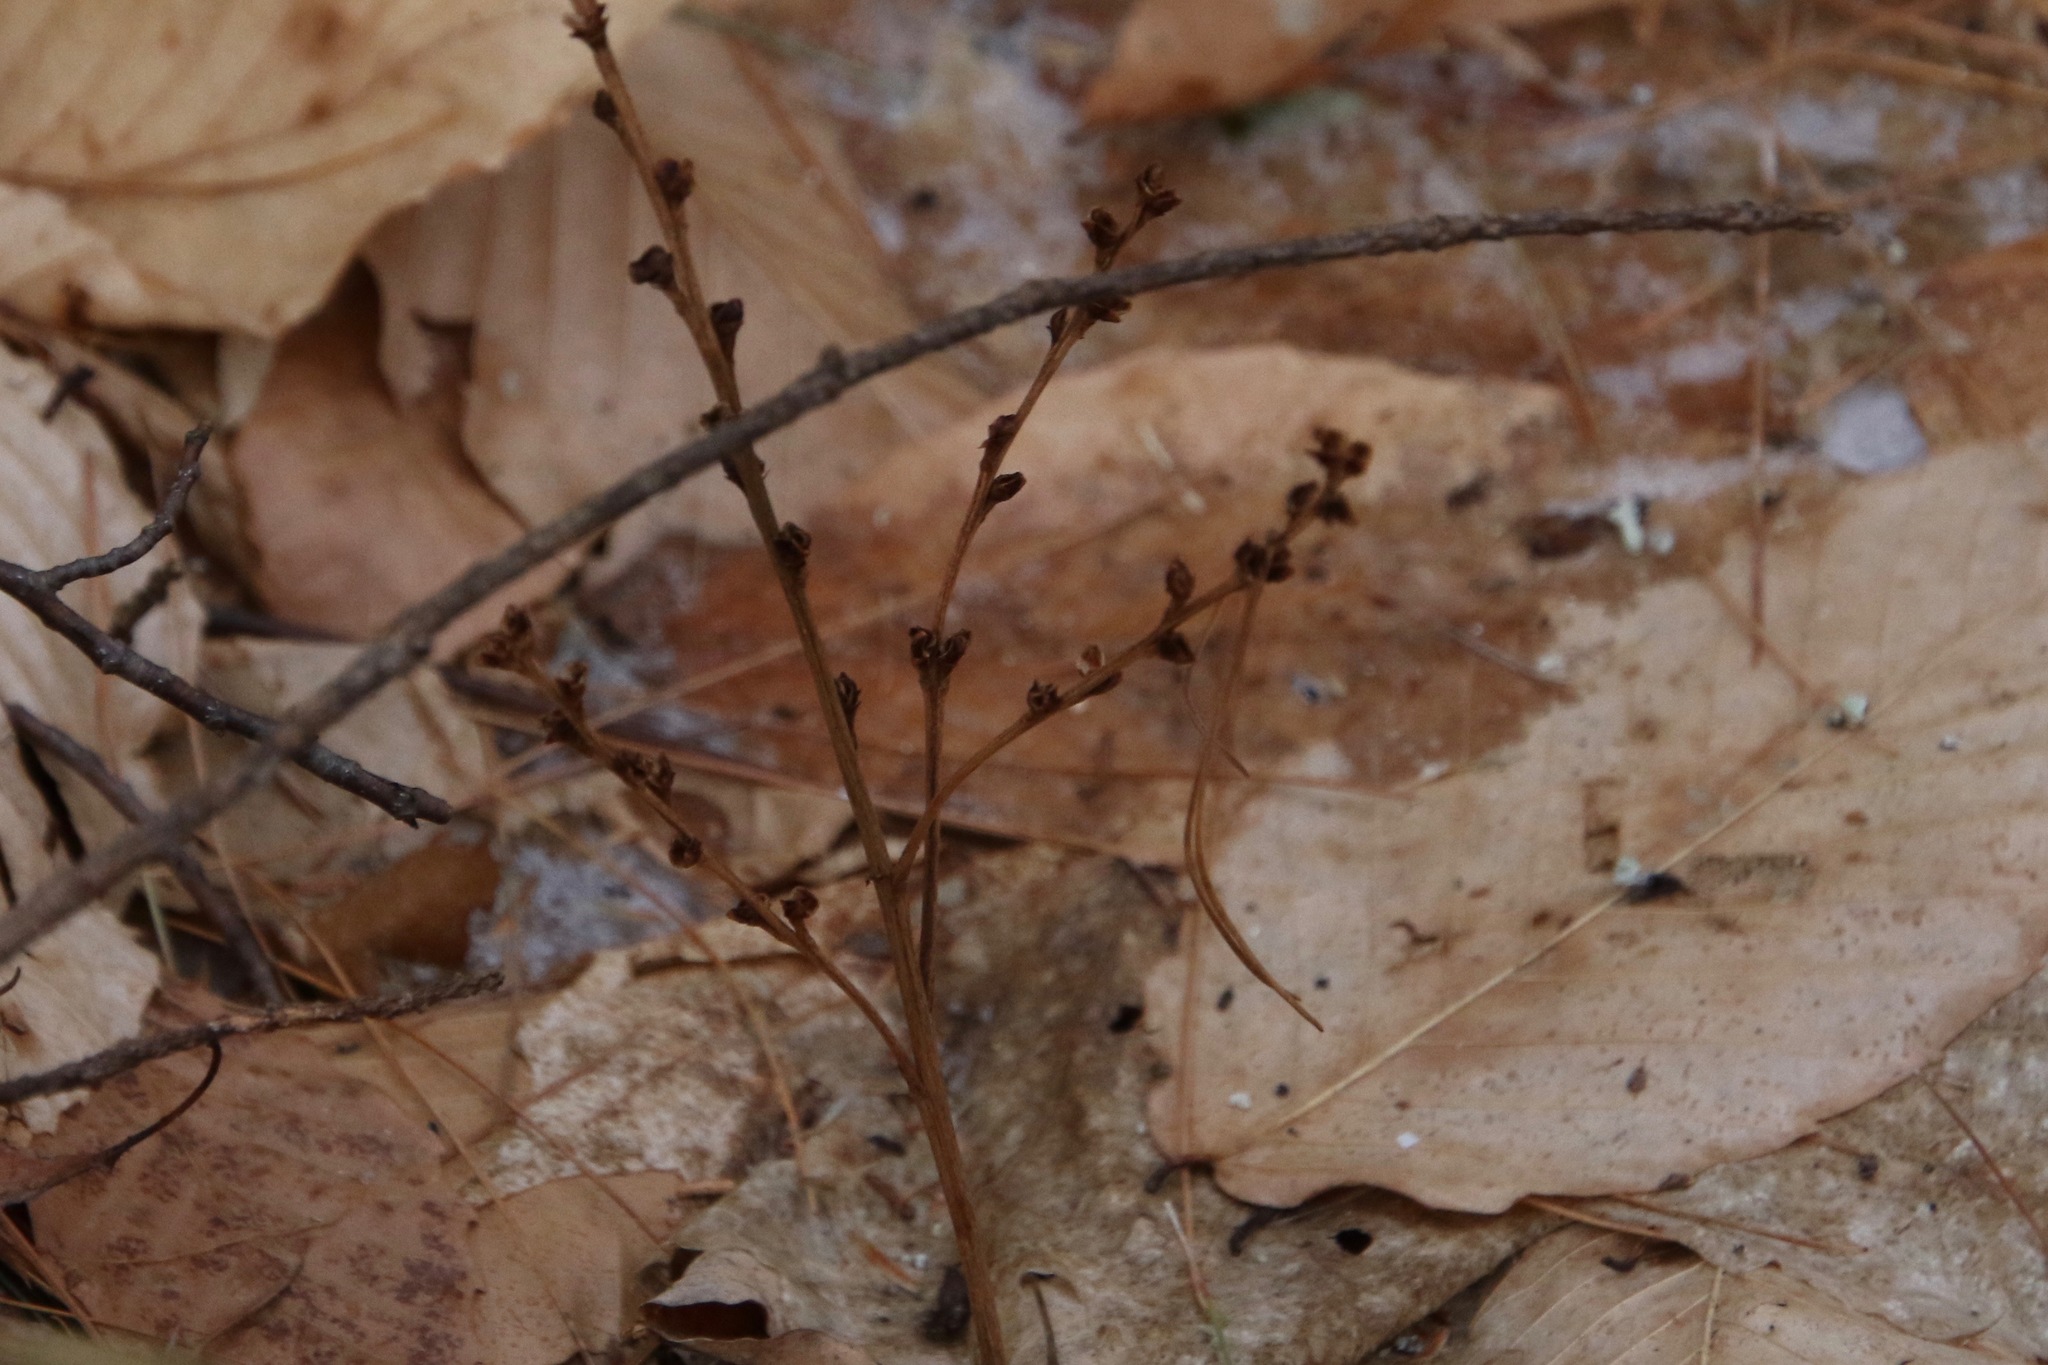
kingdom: Plantae
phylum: Tracheophyta
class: Magnoliopsida
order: Lamiales
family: Orobanchaceae
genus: Epifagus
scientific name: Epifagus virginiana
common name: Beechdrops
